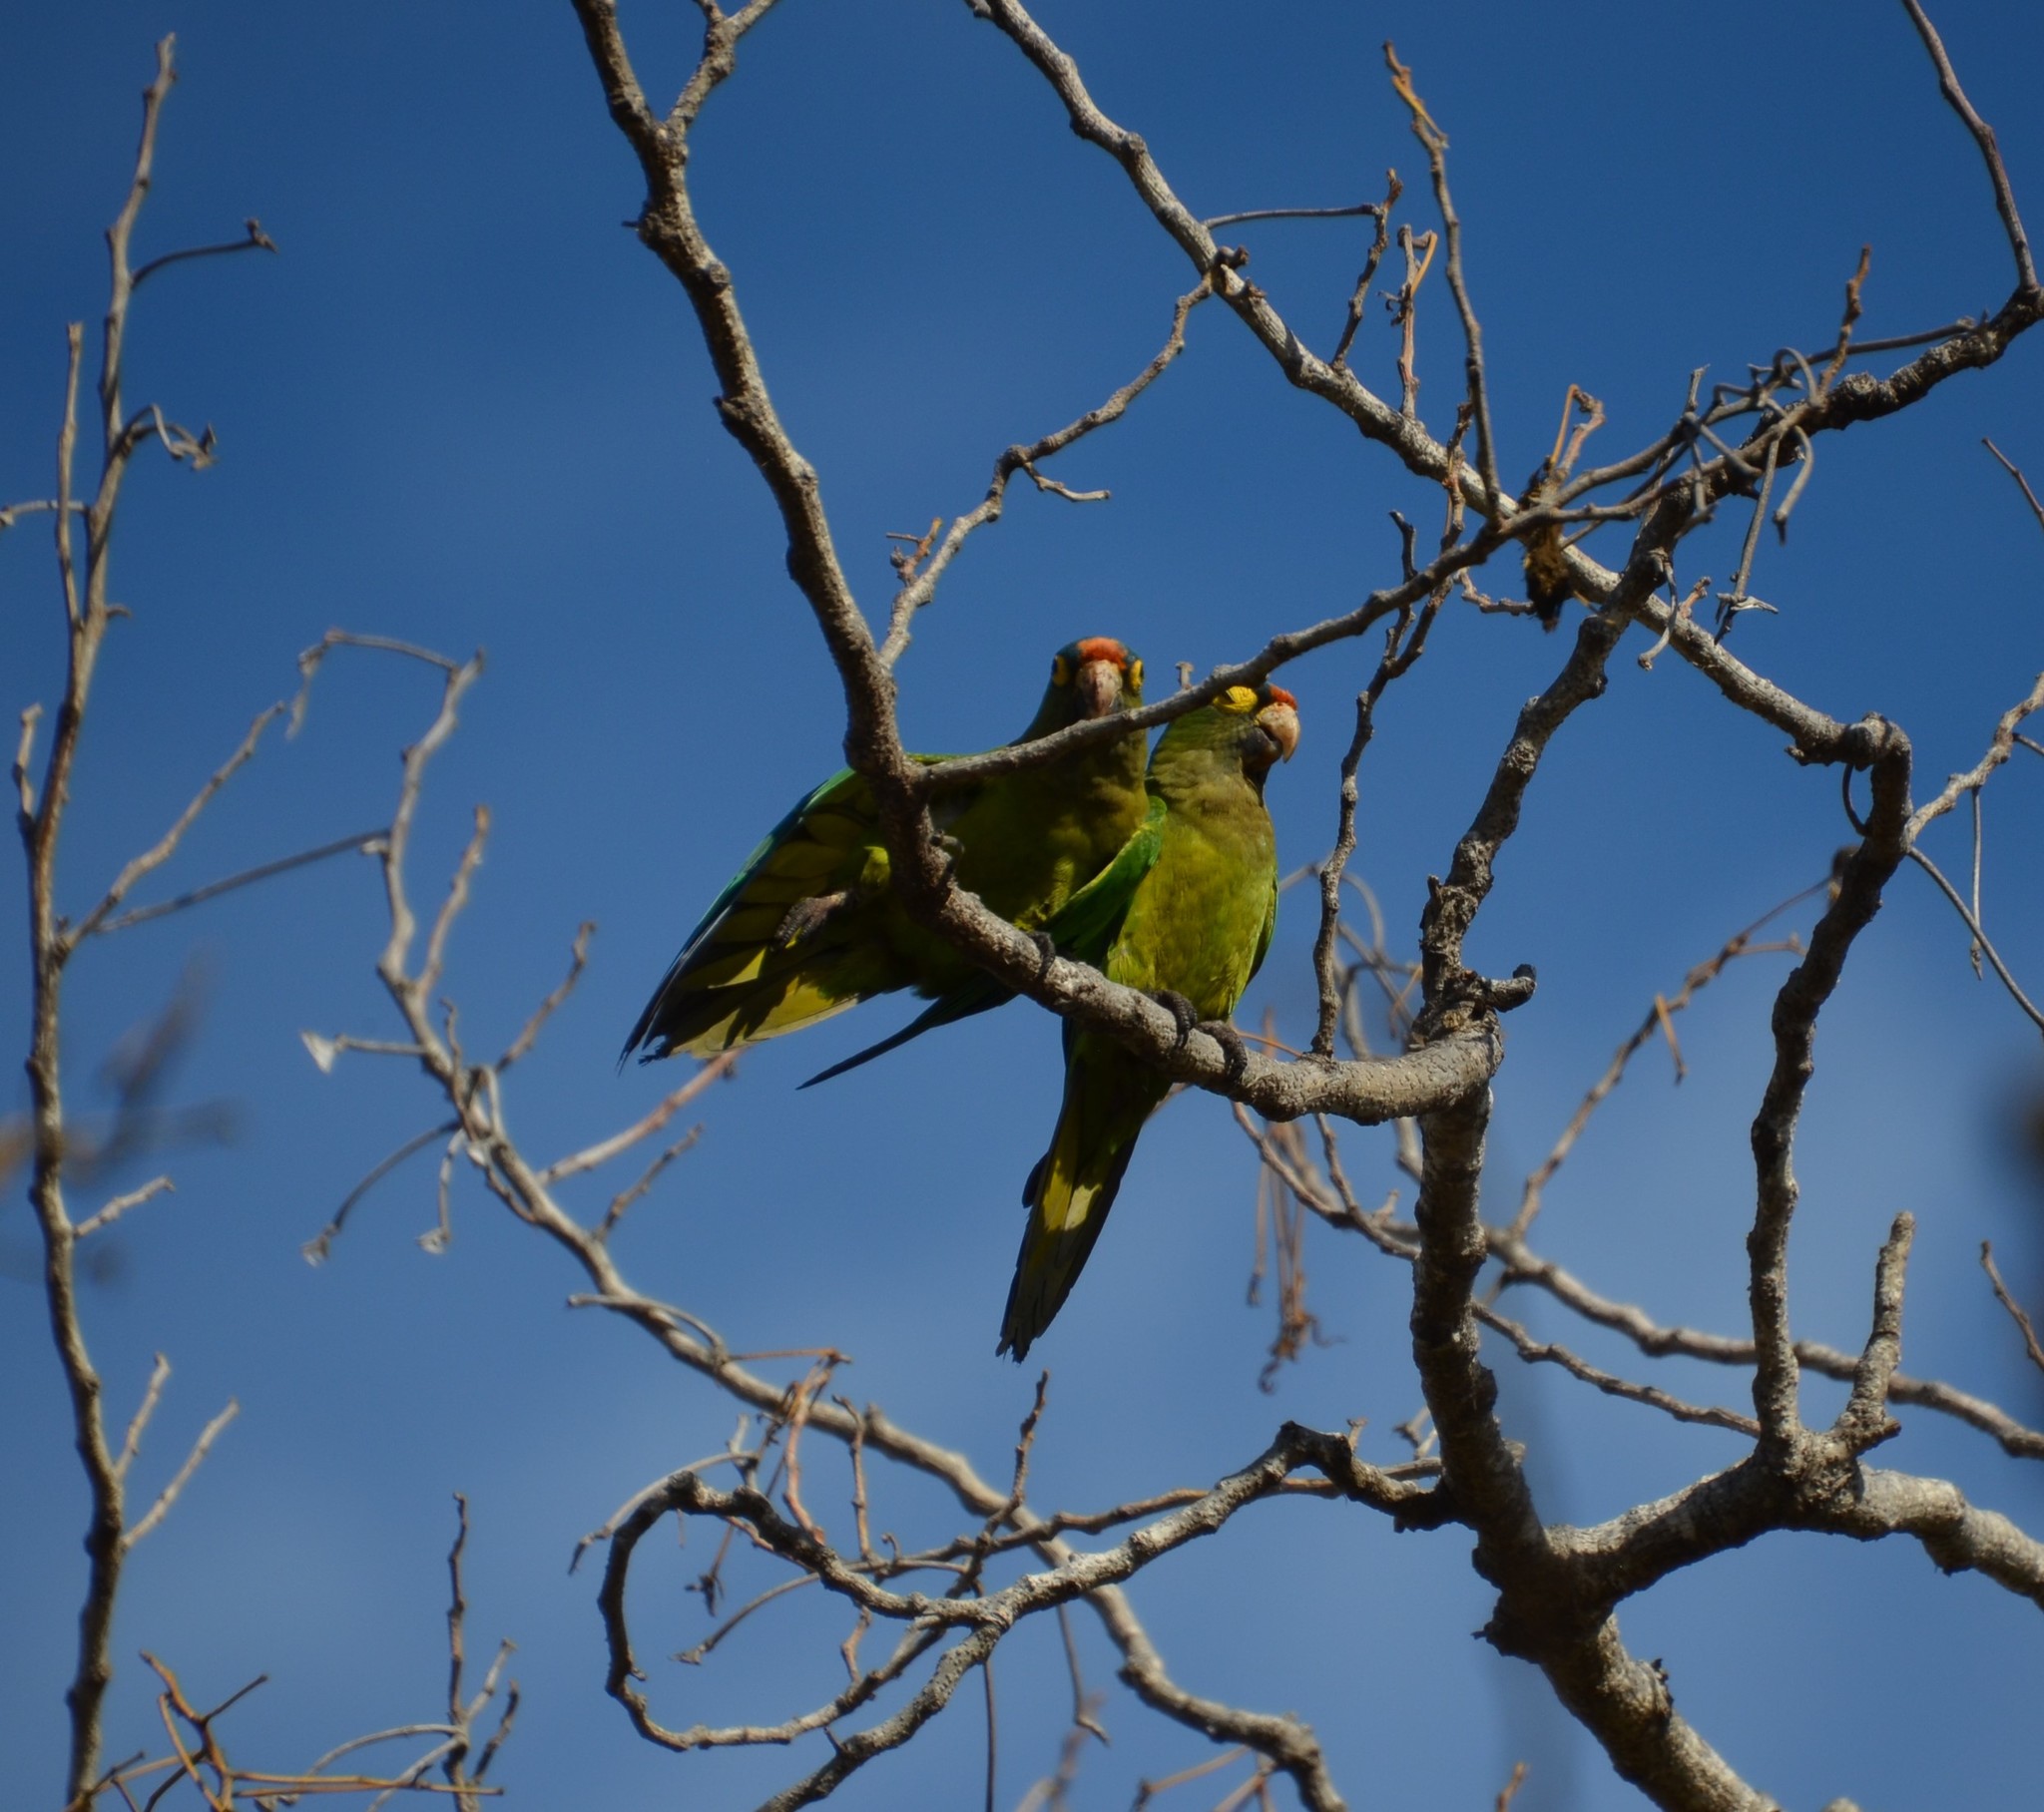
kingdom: Animalia
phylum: Chordata
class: Aves
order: Psittaciformes
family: Psittacidae
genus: Aratinga
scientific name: Aratinga canicularis
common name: Orange-fronted parakeet
